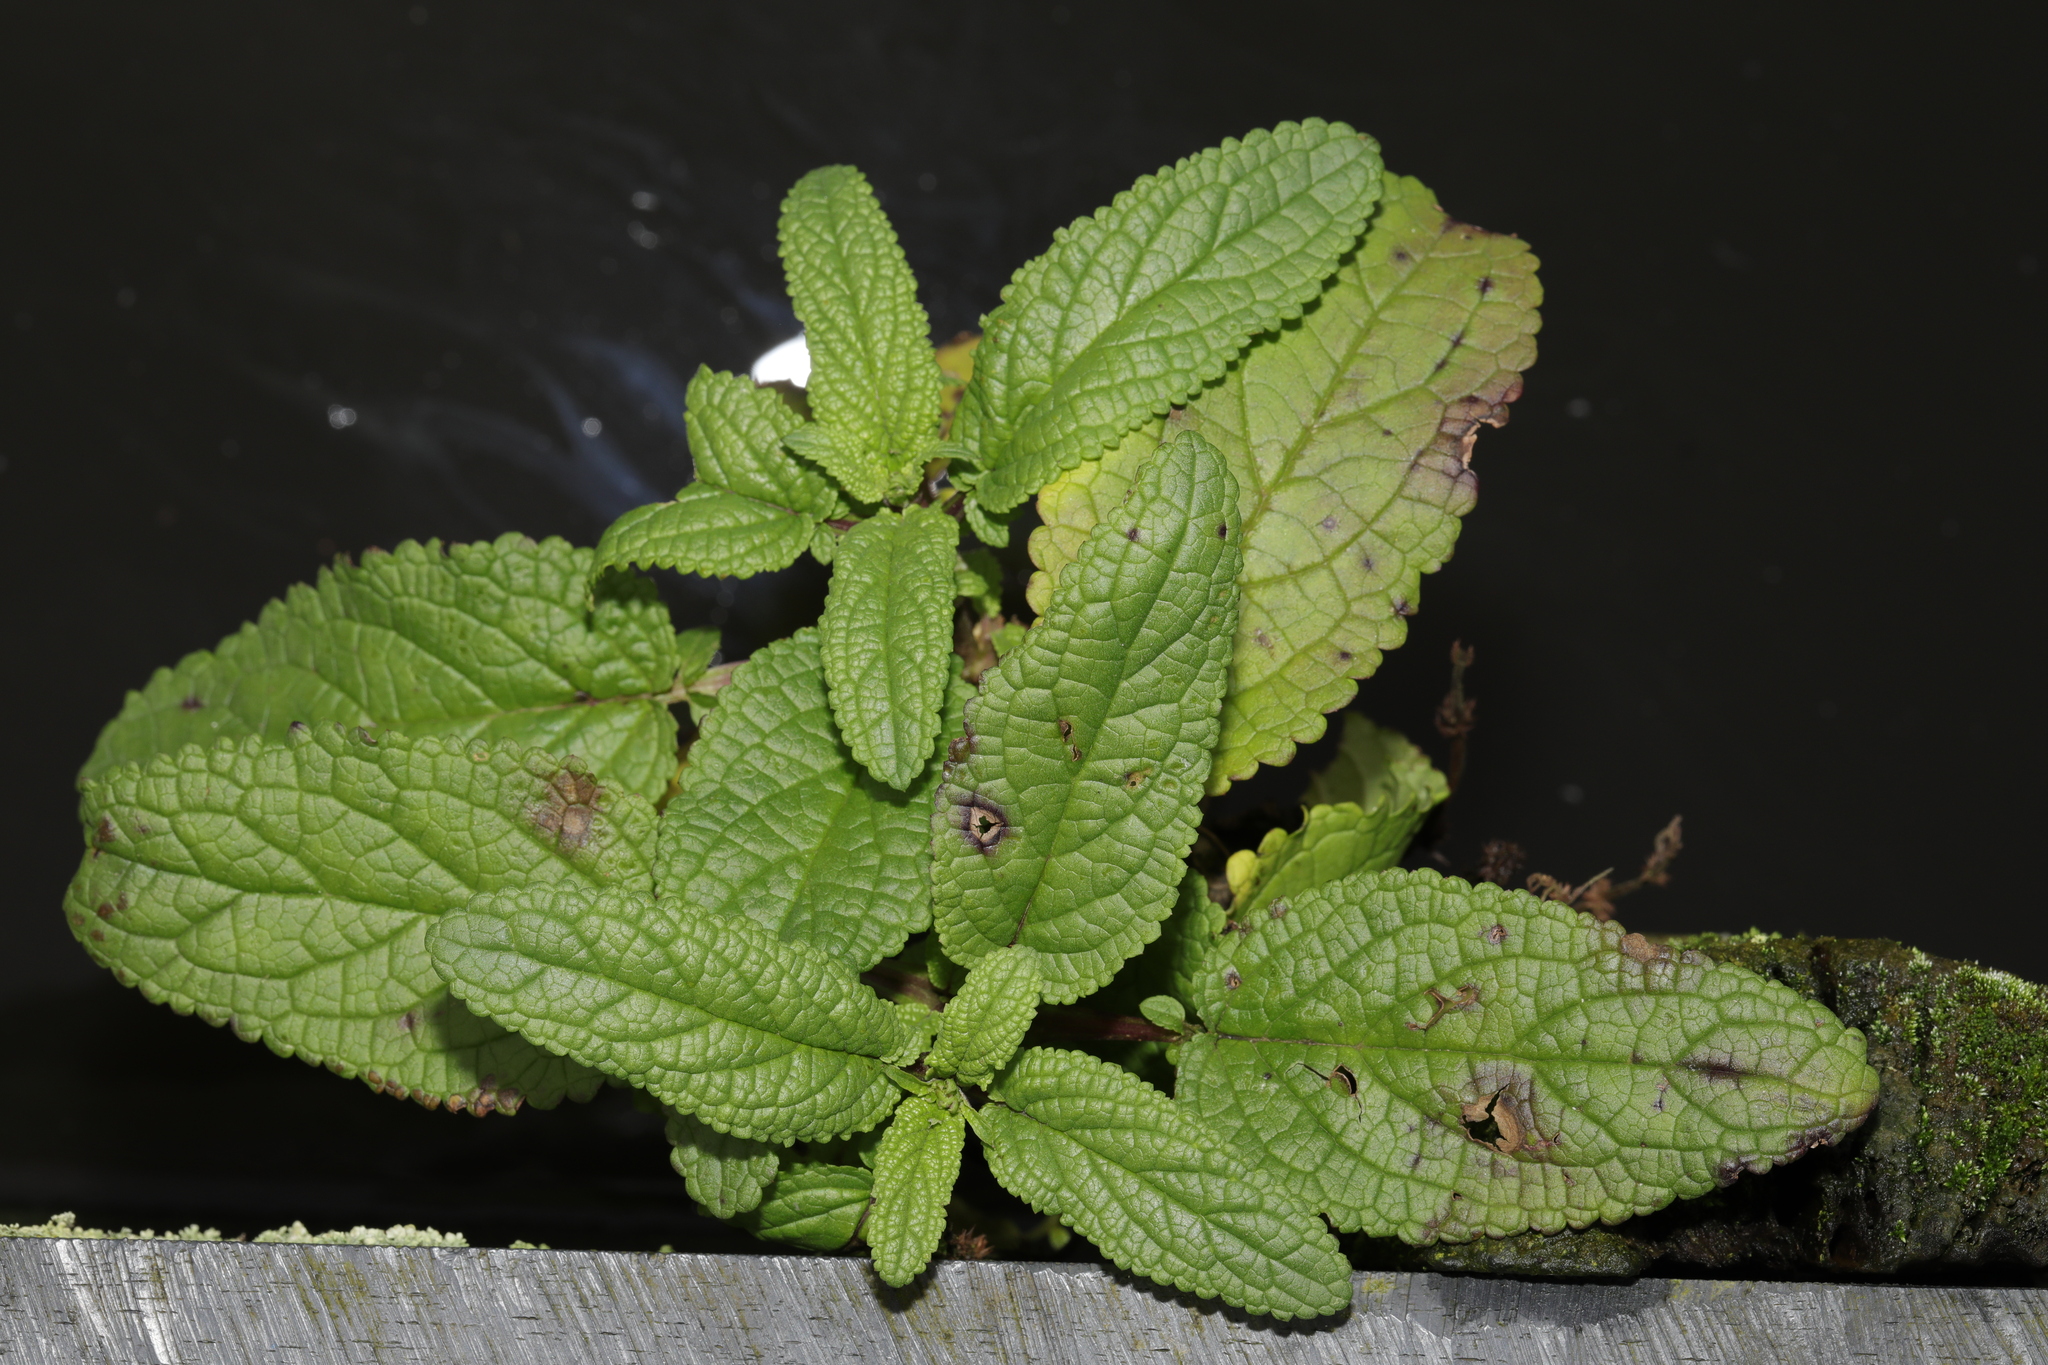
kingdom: Plantae
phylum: Tracheophyta
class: Magnoliopsida
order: Lamiales
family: Scrophulariaceae
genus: Scrophularia
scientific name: Scrophularia auriculata
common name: Water betony
